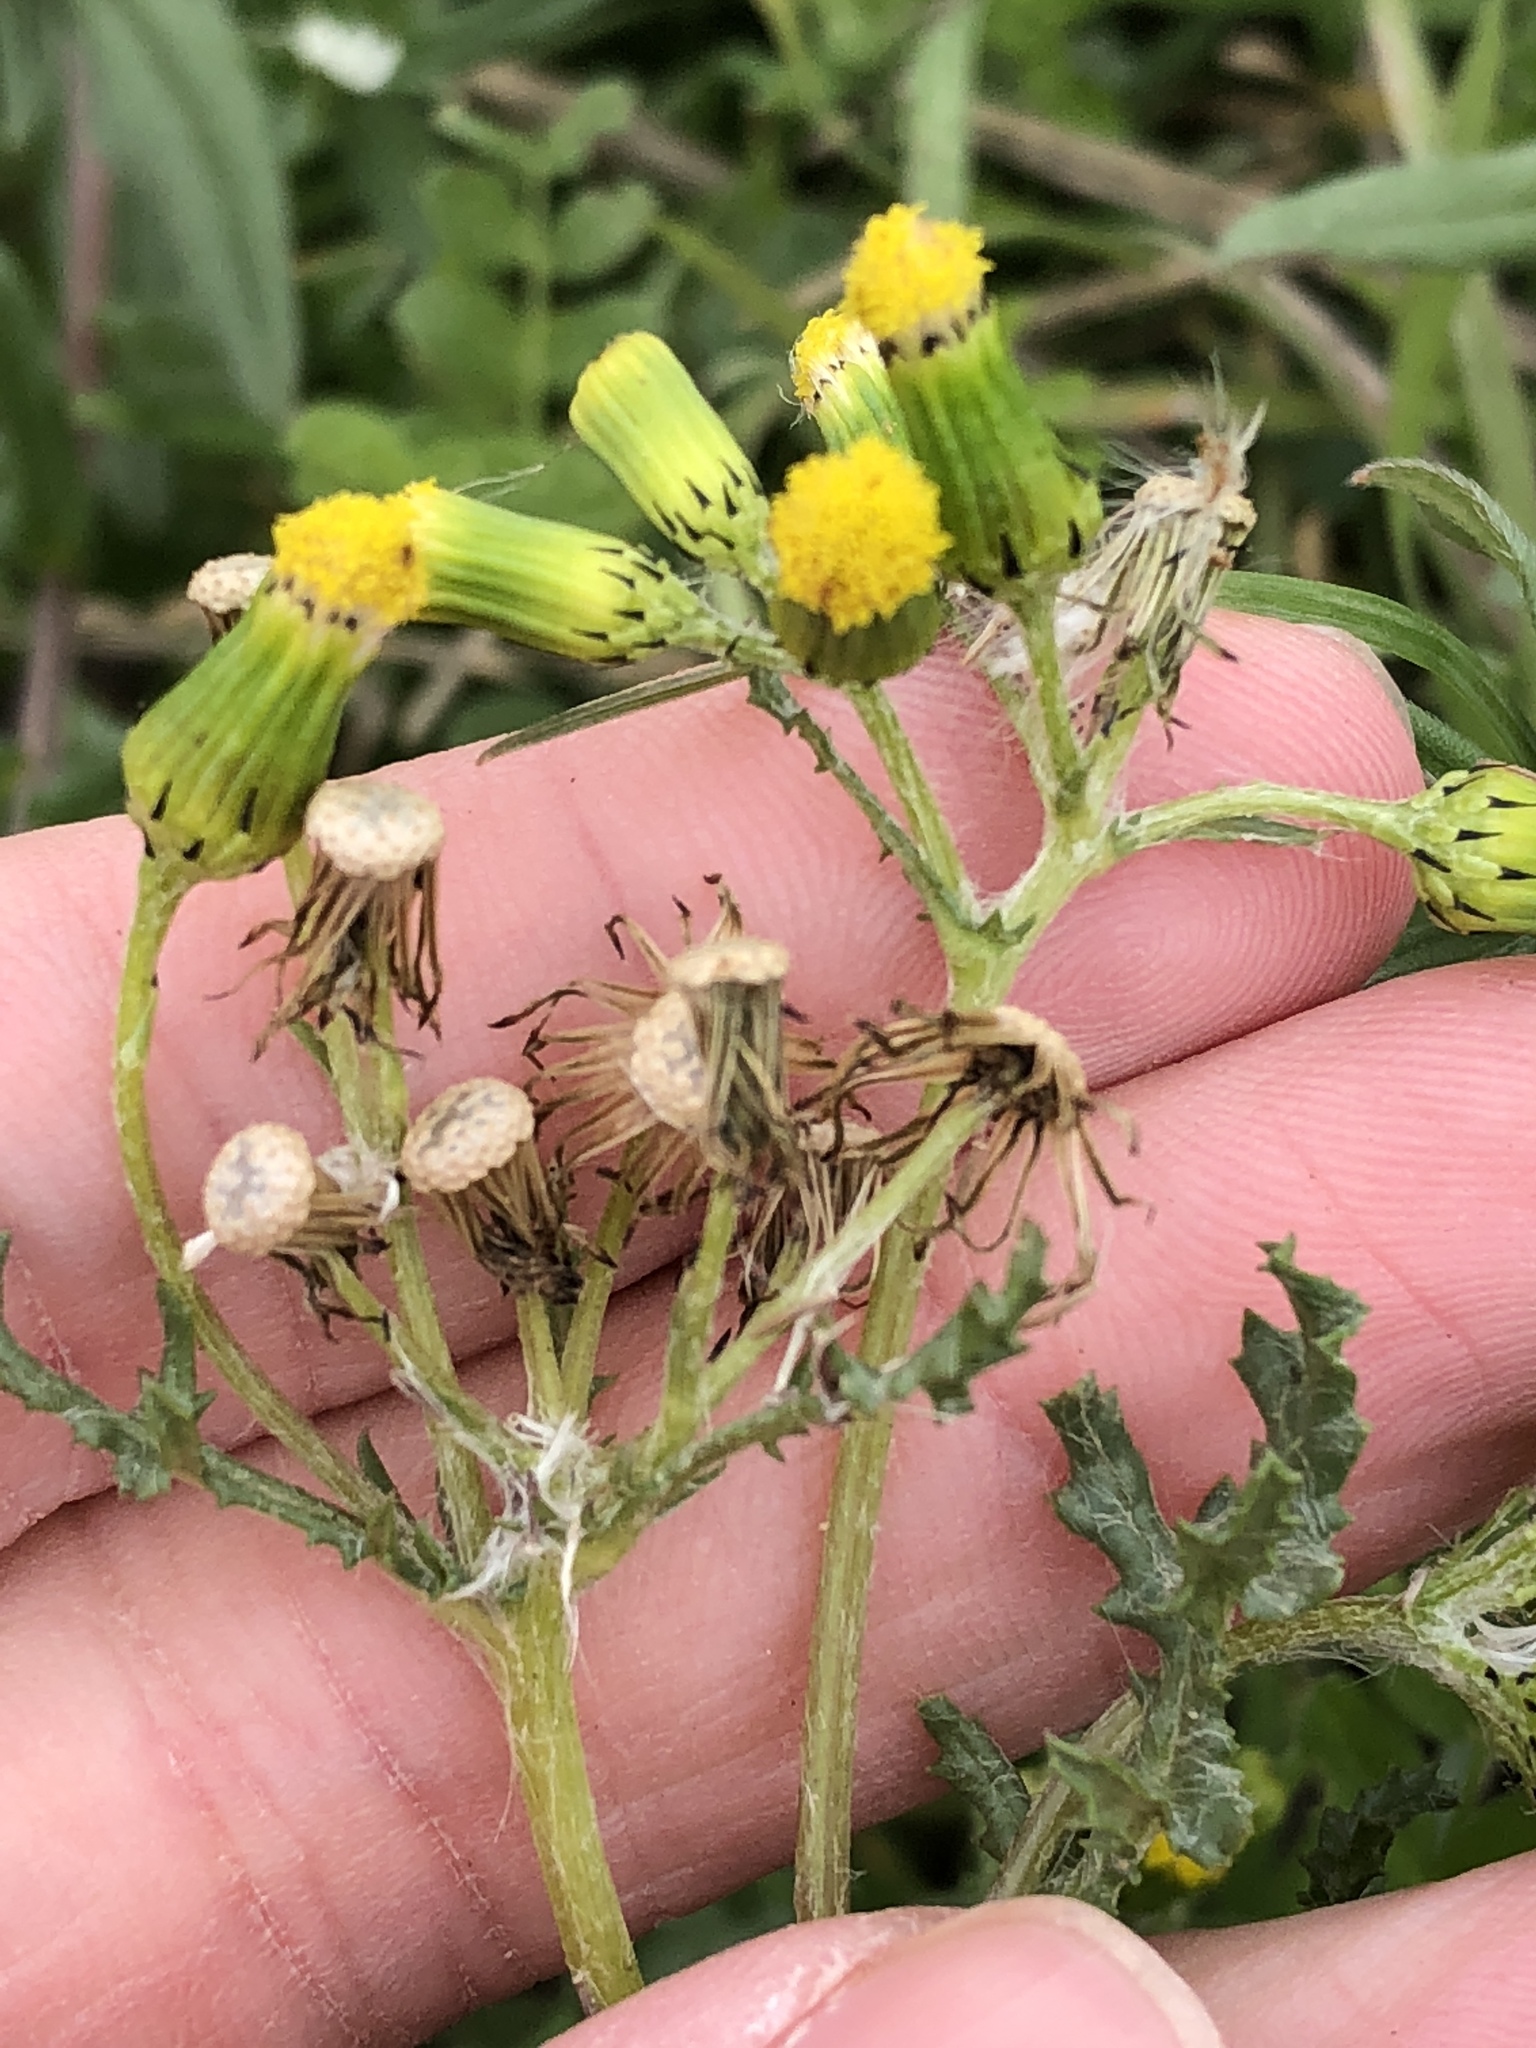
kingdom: Plantae
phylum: Tracheophyta
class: Magnoliopsida
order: Asterales
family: Asteraceae
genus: Senecio
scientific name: Senecio vulgaris
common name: Old-man-in-the-spring
